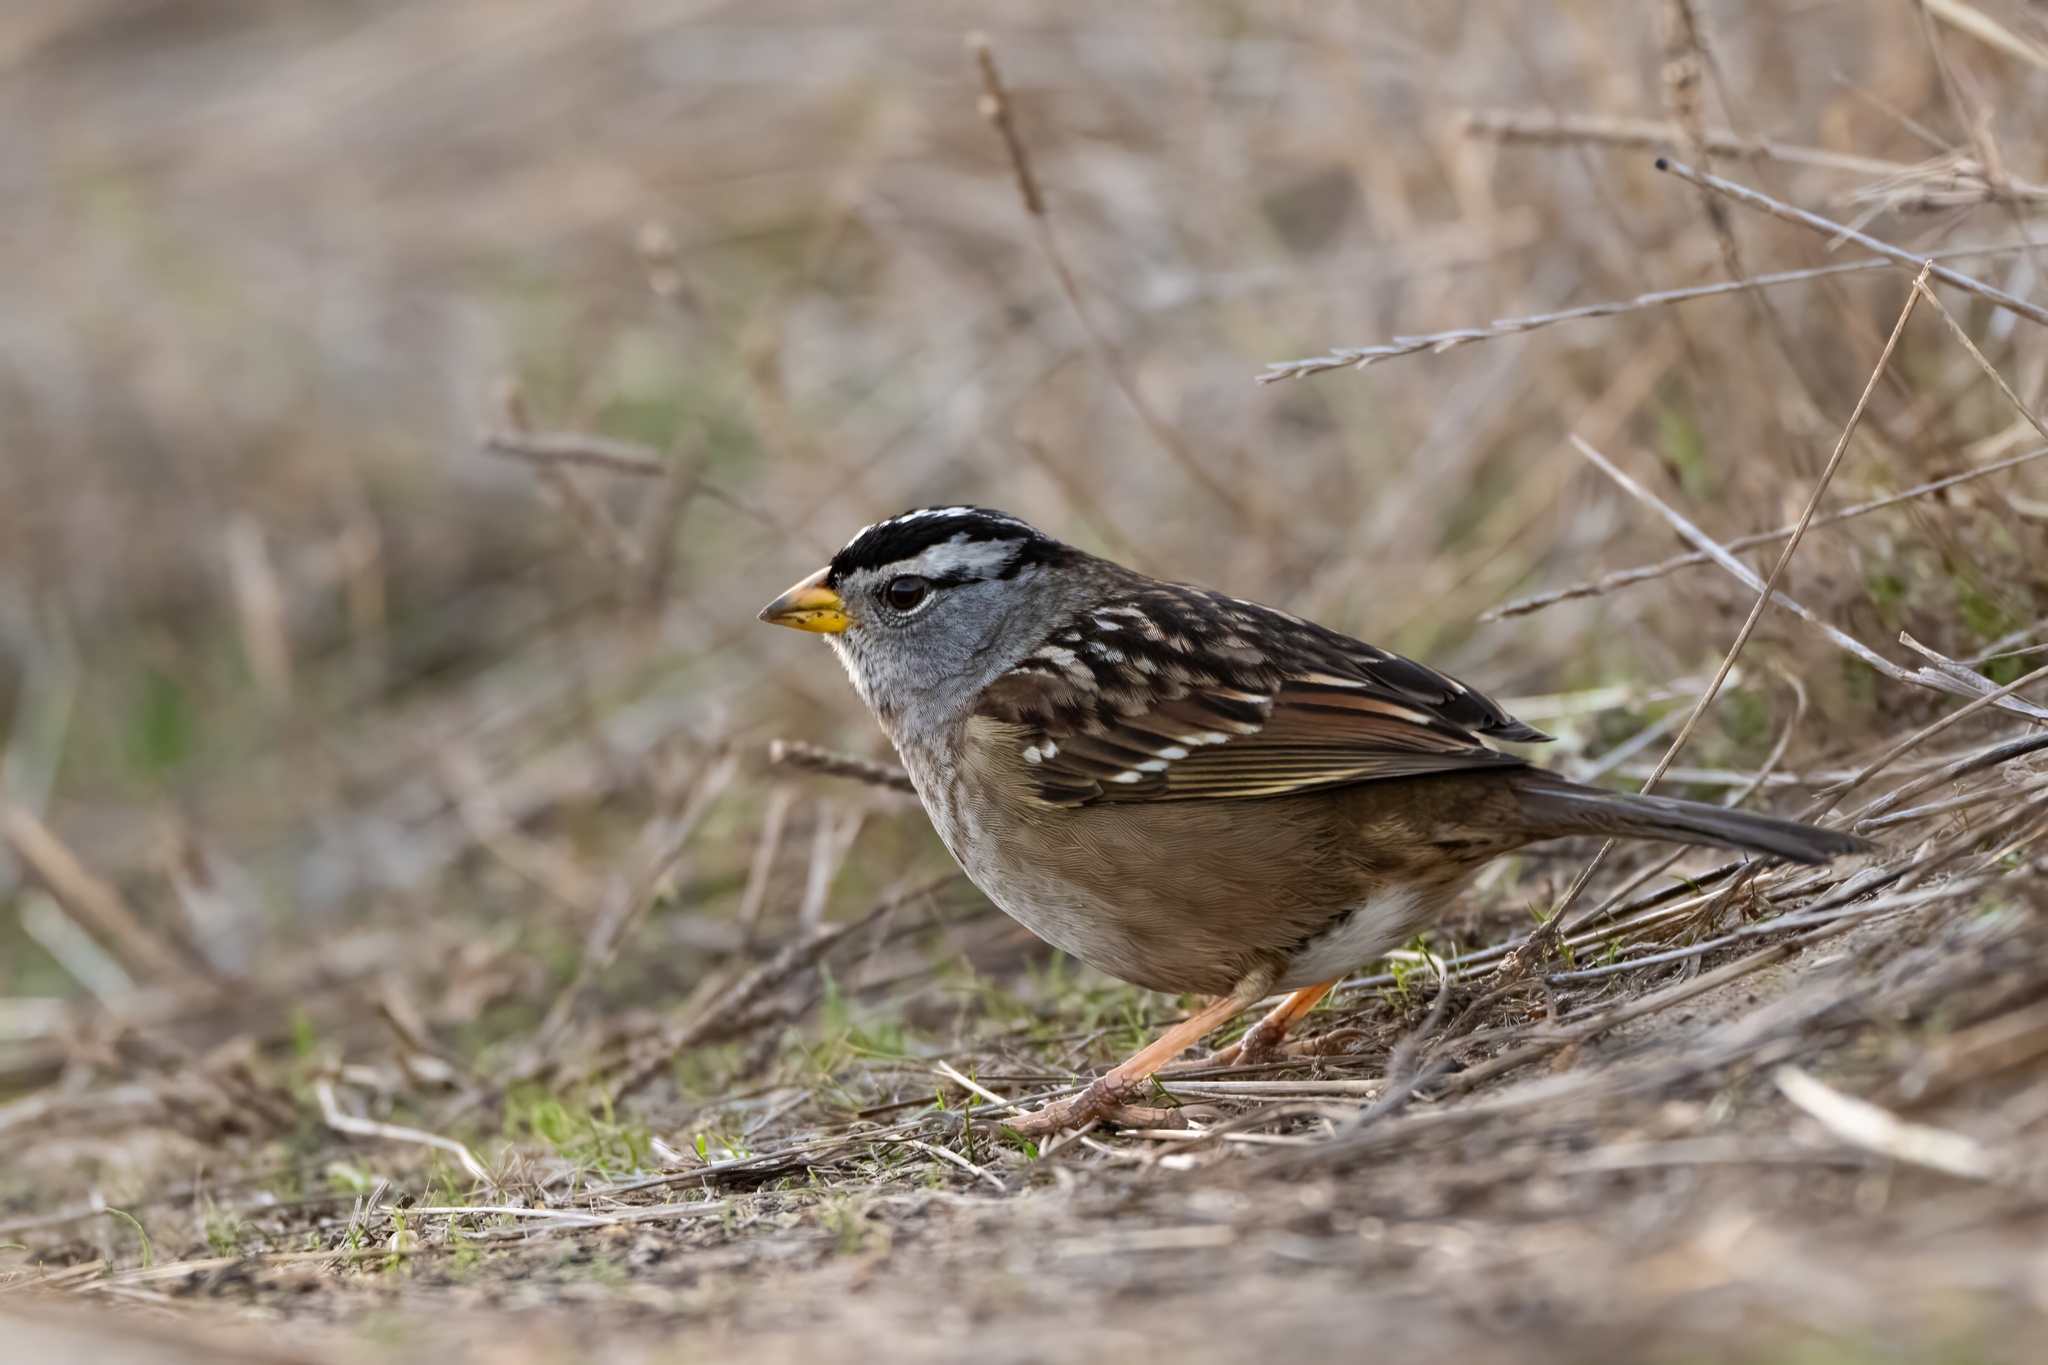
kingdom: Animalia
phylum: Chordata
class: Aves
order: Passeriformes
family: Passerellidae
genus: Zonotrichia
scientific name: Zonotrichia leucophrys
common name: White-crowned sparrow
